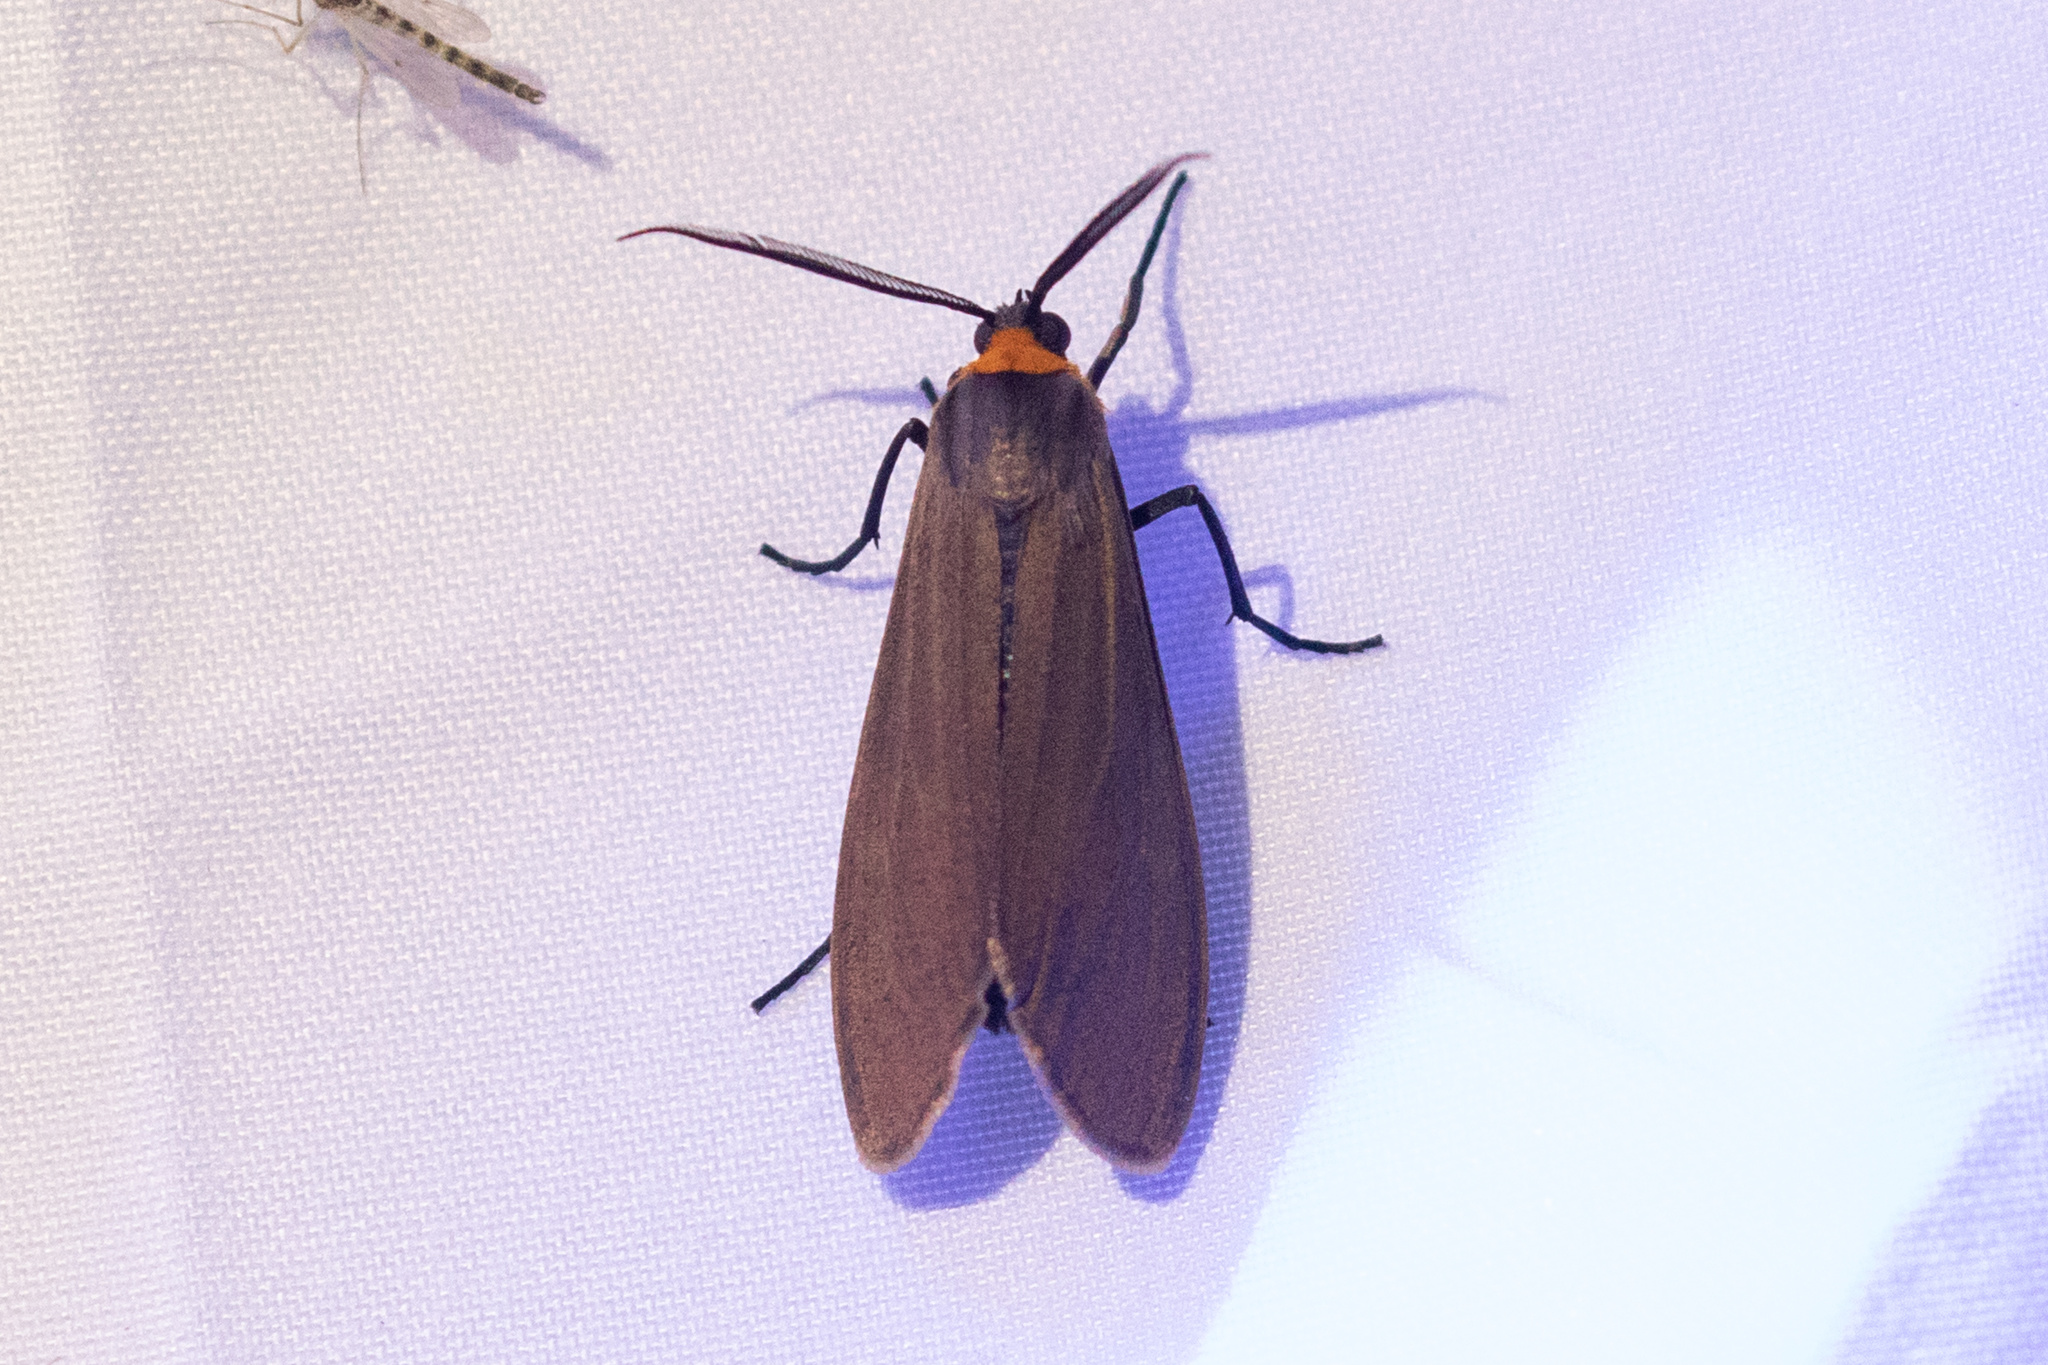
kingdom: Animalia
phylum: Arthropoda
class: Insecta
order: Lepidoptera
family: Erebidae
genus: Cisseps
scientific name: Cisseps fulvicollis
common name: Yellow-collared scape moth
